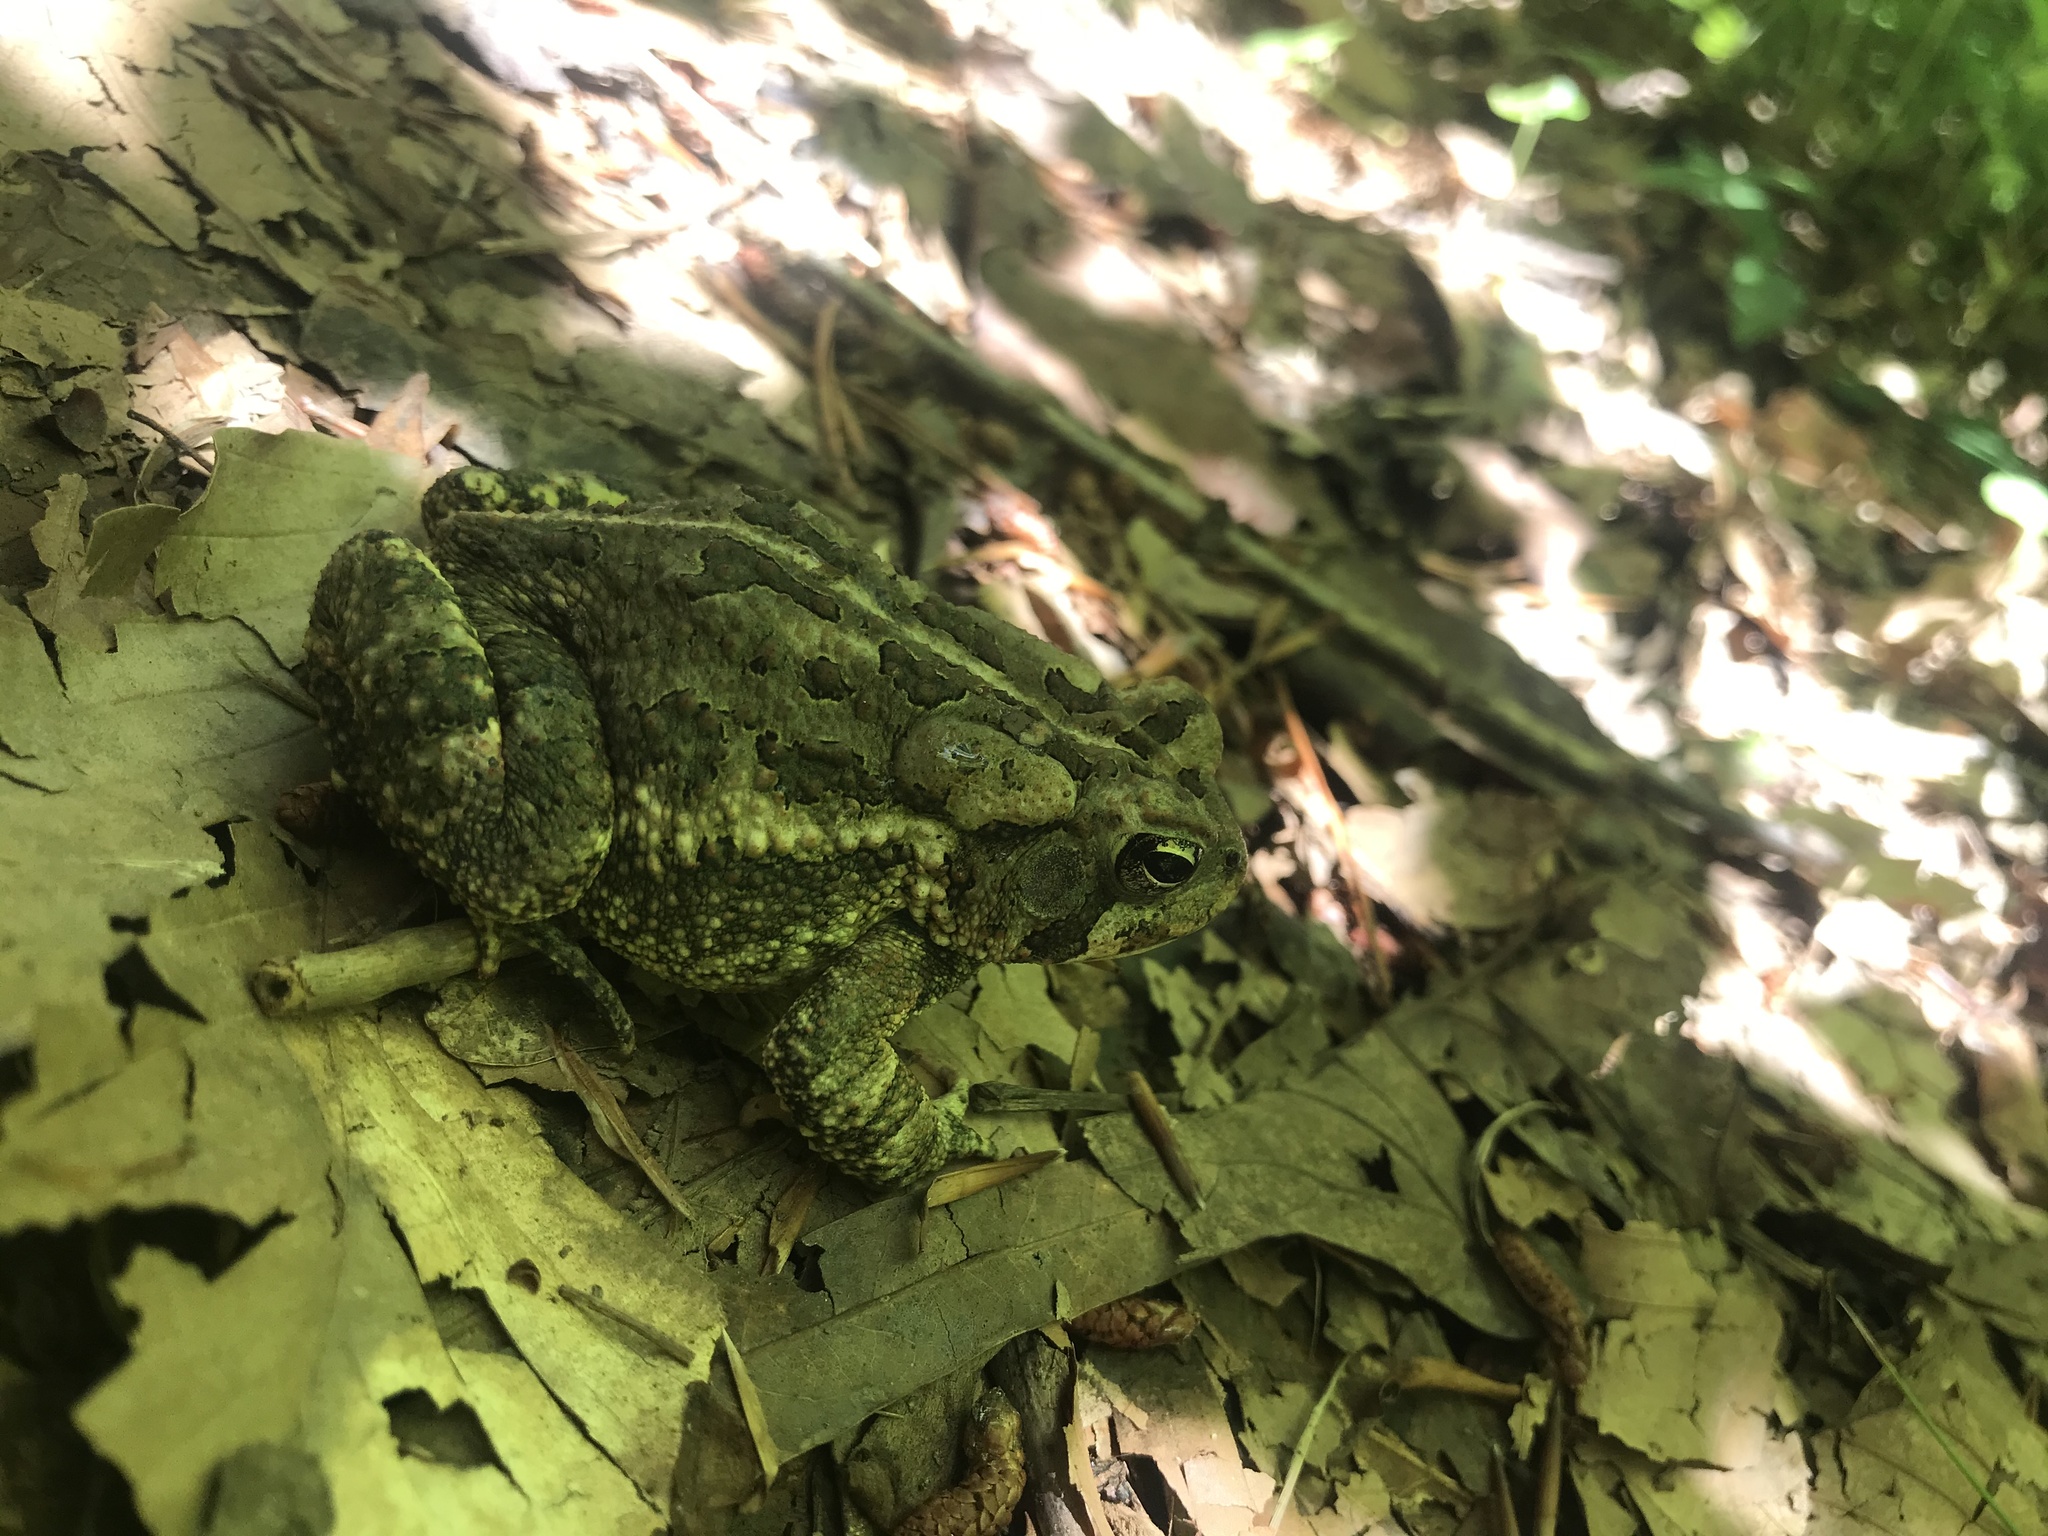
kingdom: Animalia
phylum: Chordata
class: Amphibia
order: Anura
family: Bufonidae
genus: Anaxyrus
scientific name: Anaxyrus fowleri
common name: Fowler's toad
